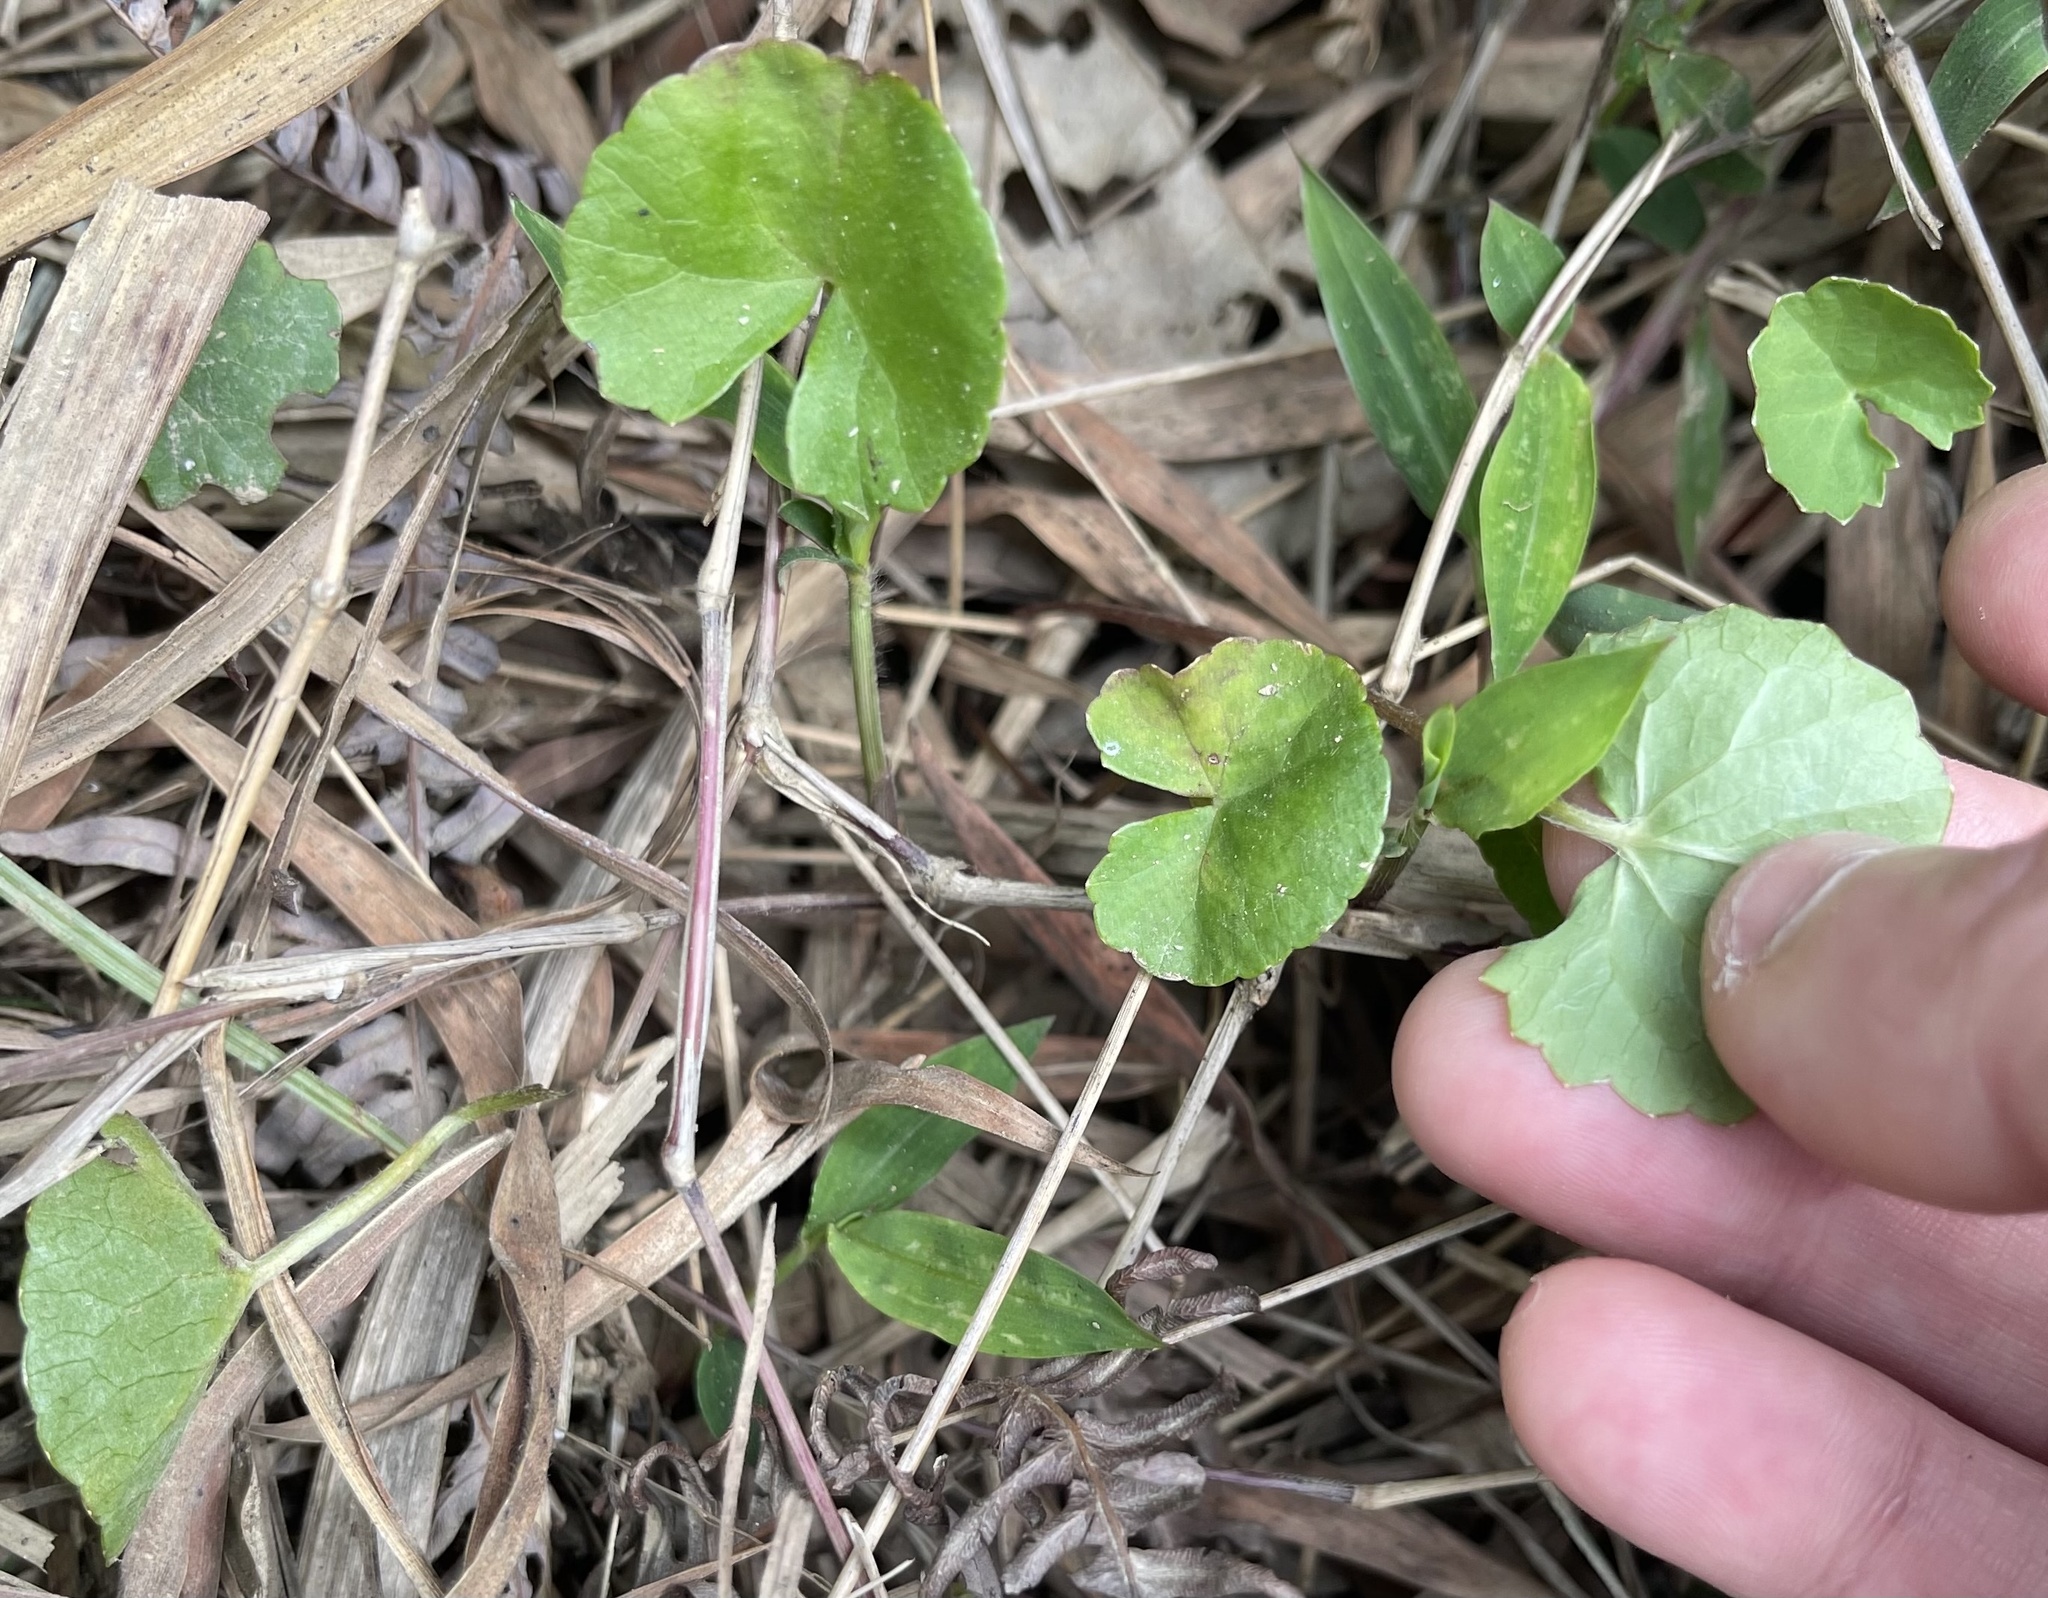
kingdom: Plantae
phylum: Tracheophyta
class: Magnoliopsida
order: Apiales
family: Apiaceae
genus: Centella
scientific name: Centella asiatica
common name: Spadeleaf
